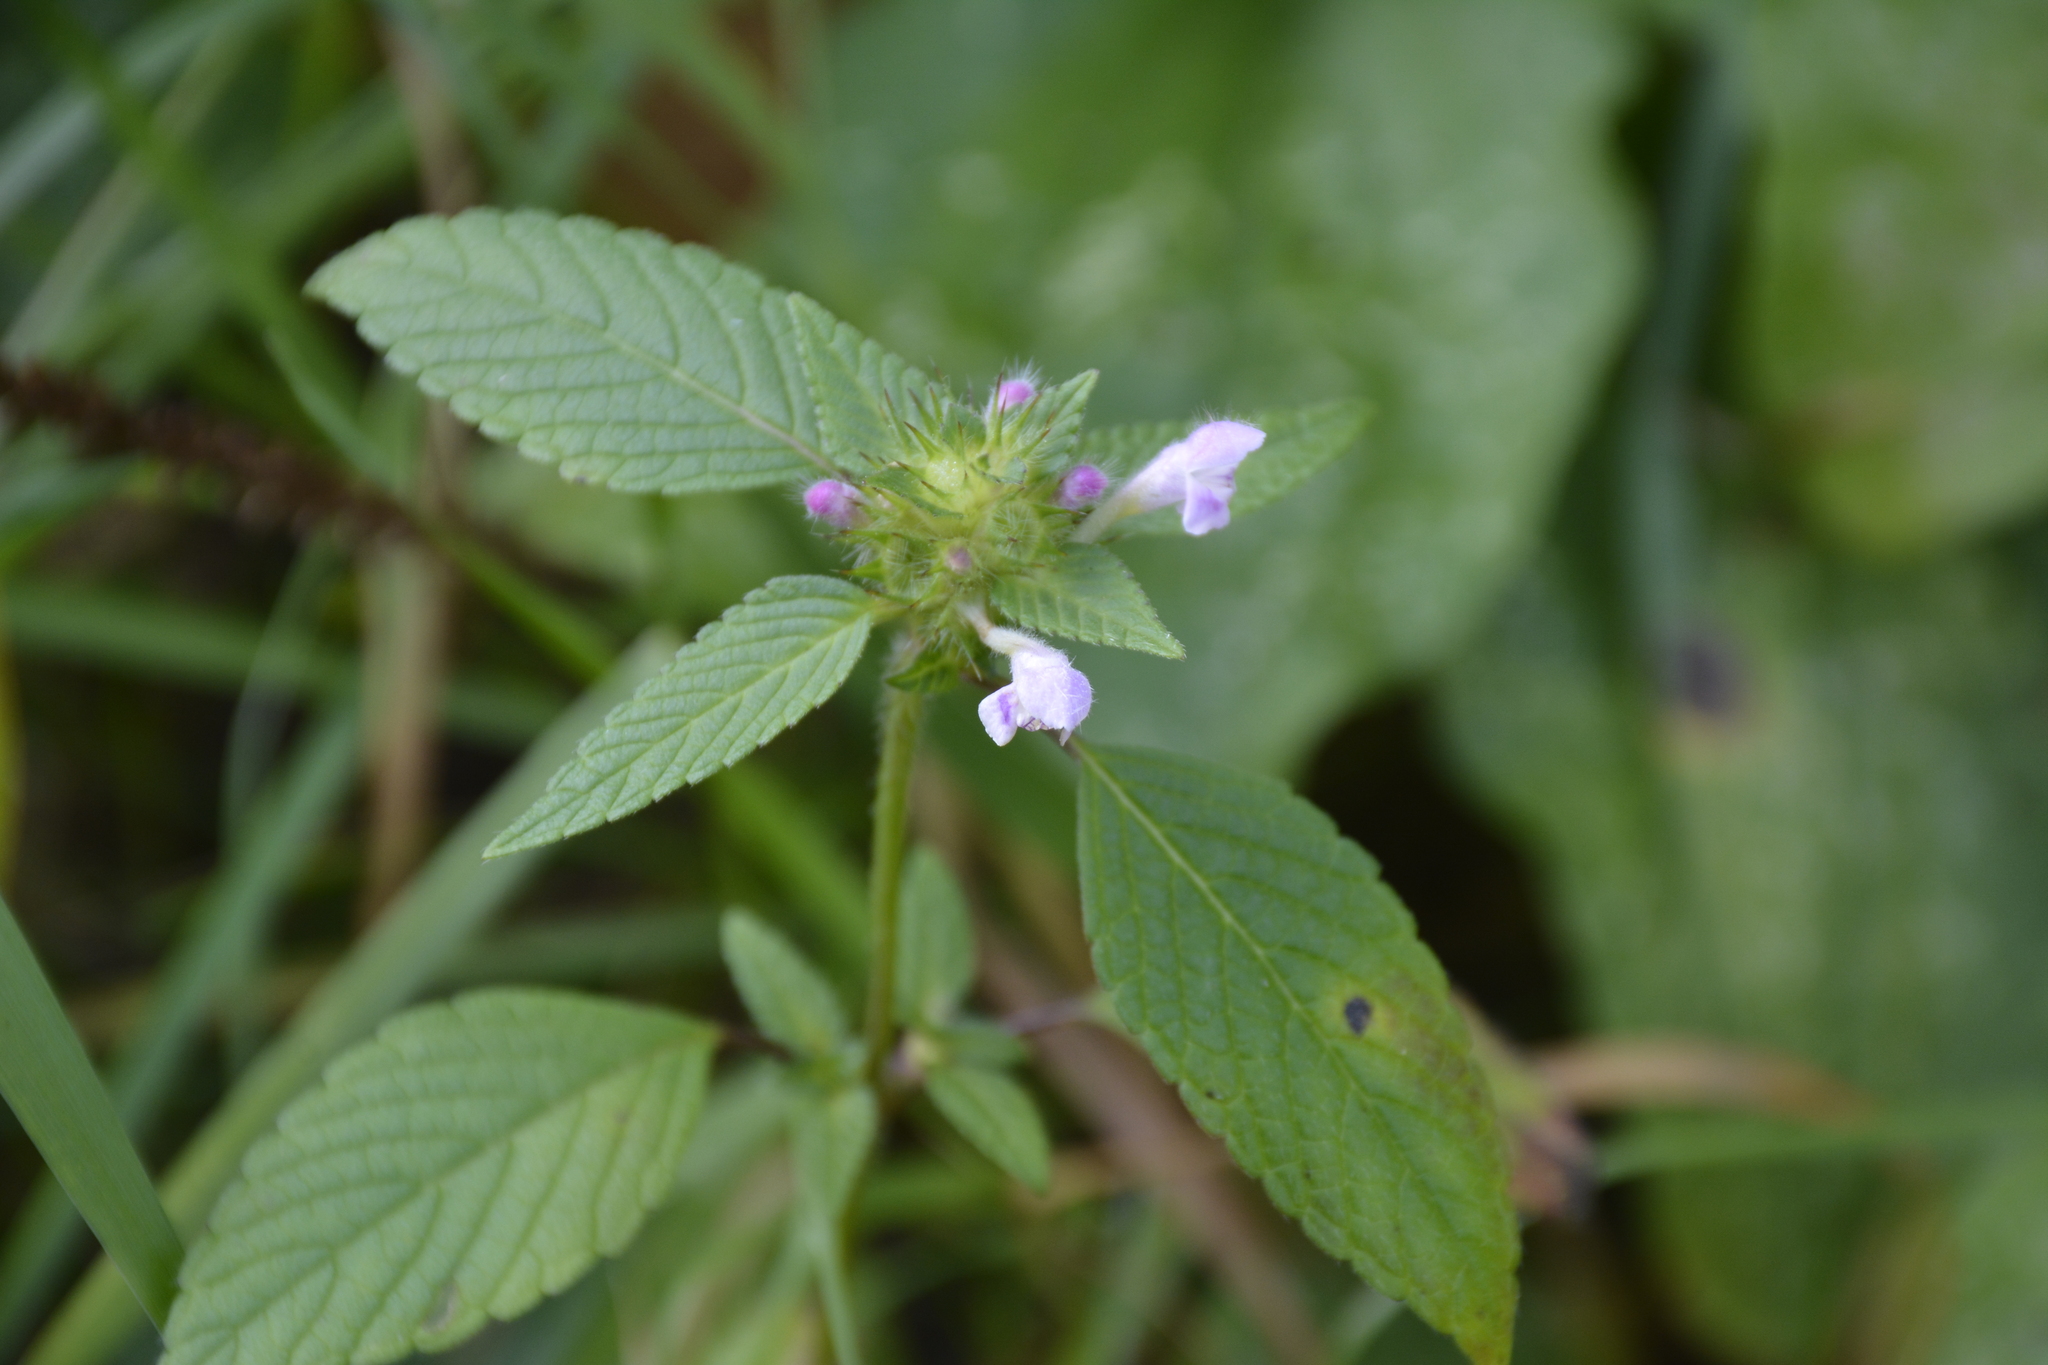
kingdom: Plantae
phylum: Tracheophyta
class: Magnoliopsida
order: Lamiales
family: Lamiaceae
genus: Galeopsis
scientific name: Galeopsis tetrahit
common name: Common hemp-nettle
